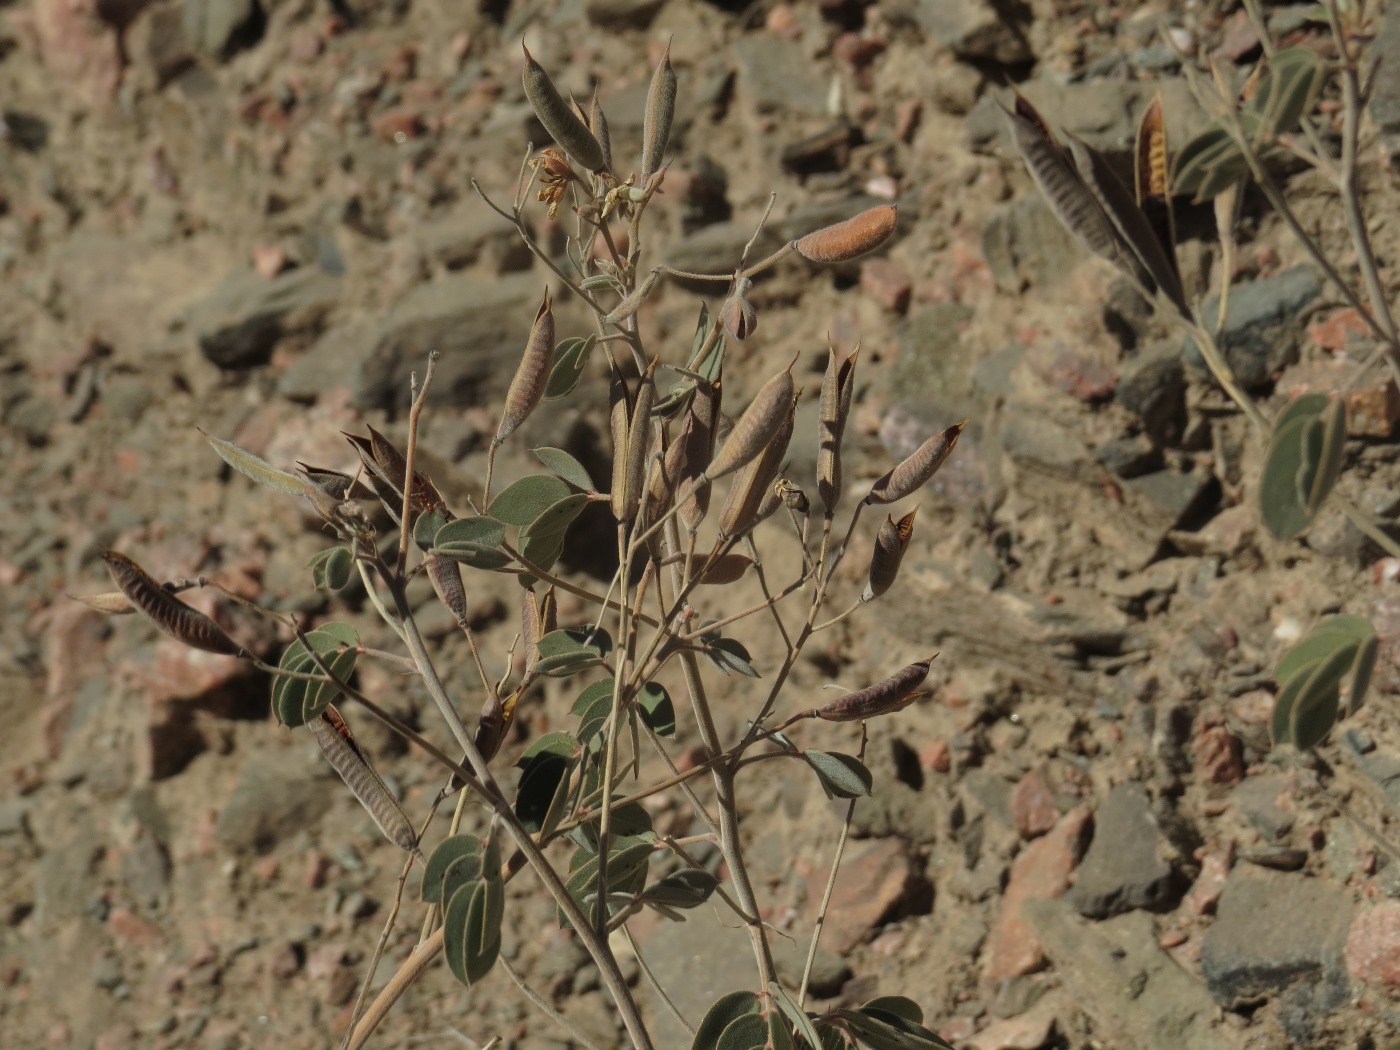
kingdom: Plantae
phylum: Tracheophyta
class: Magnoliopsida
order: Fabales
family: Fabaceae
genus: Senna
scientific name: Senna covesii
